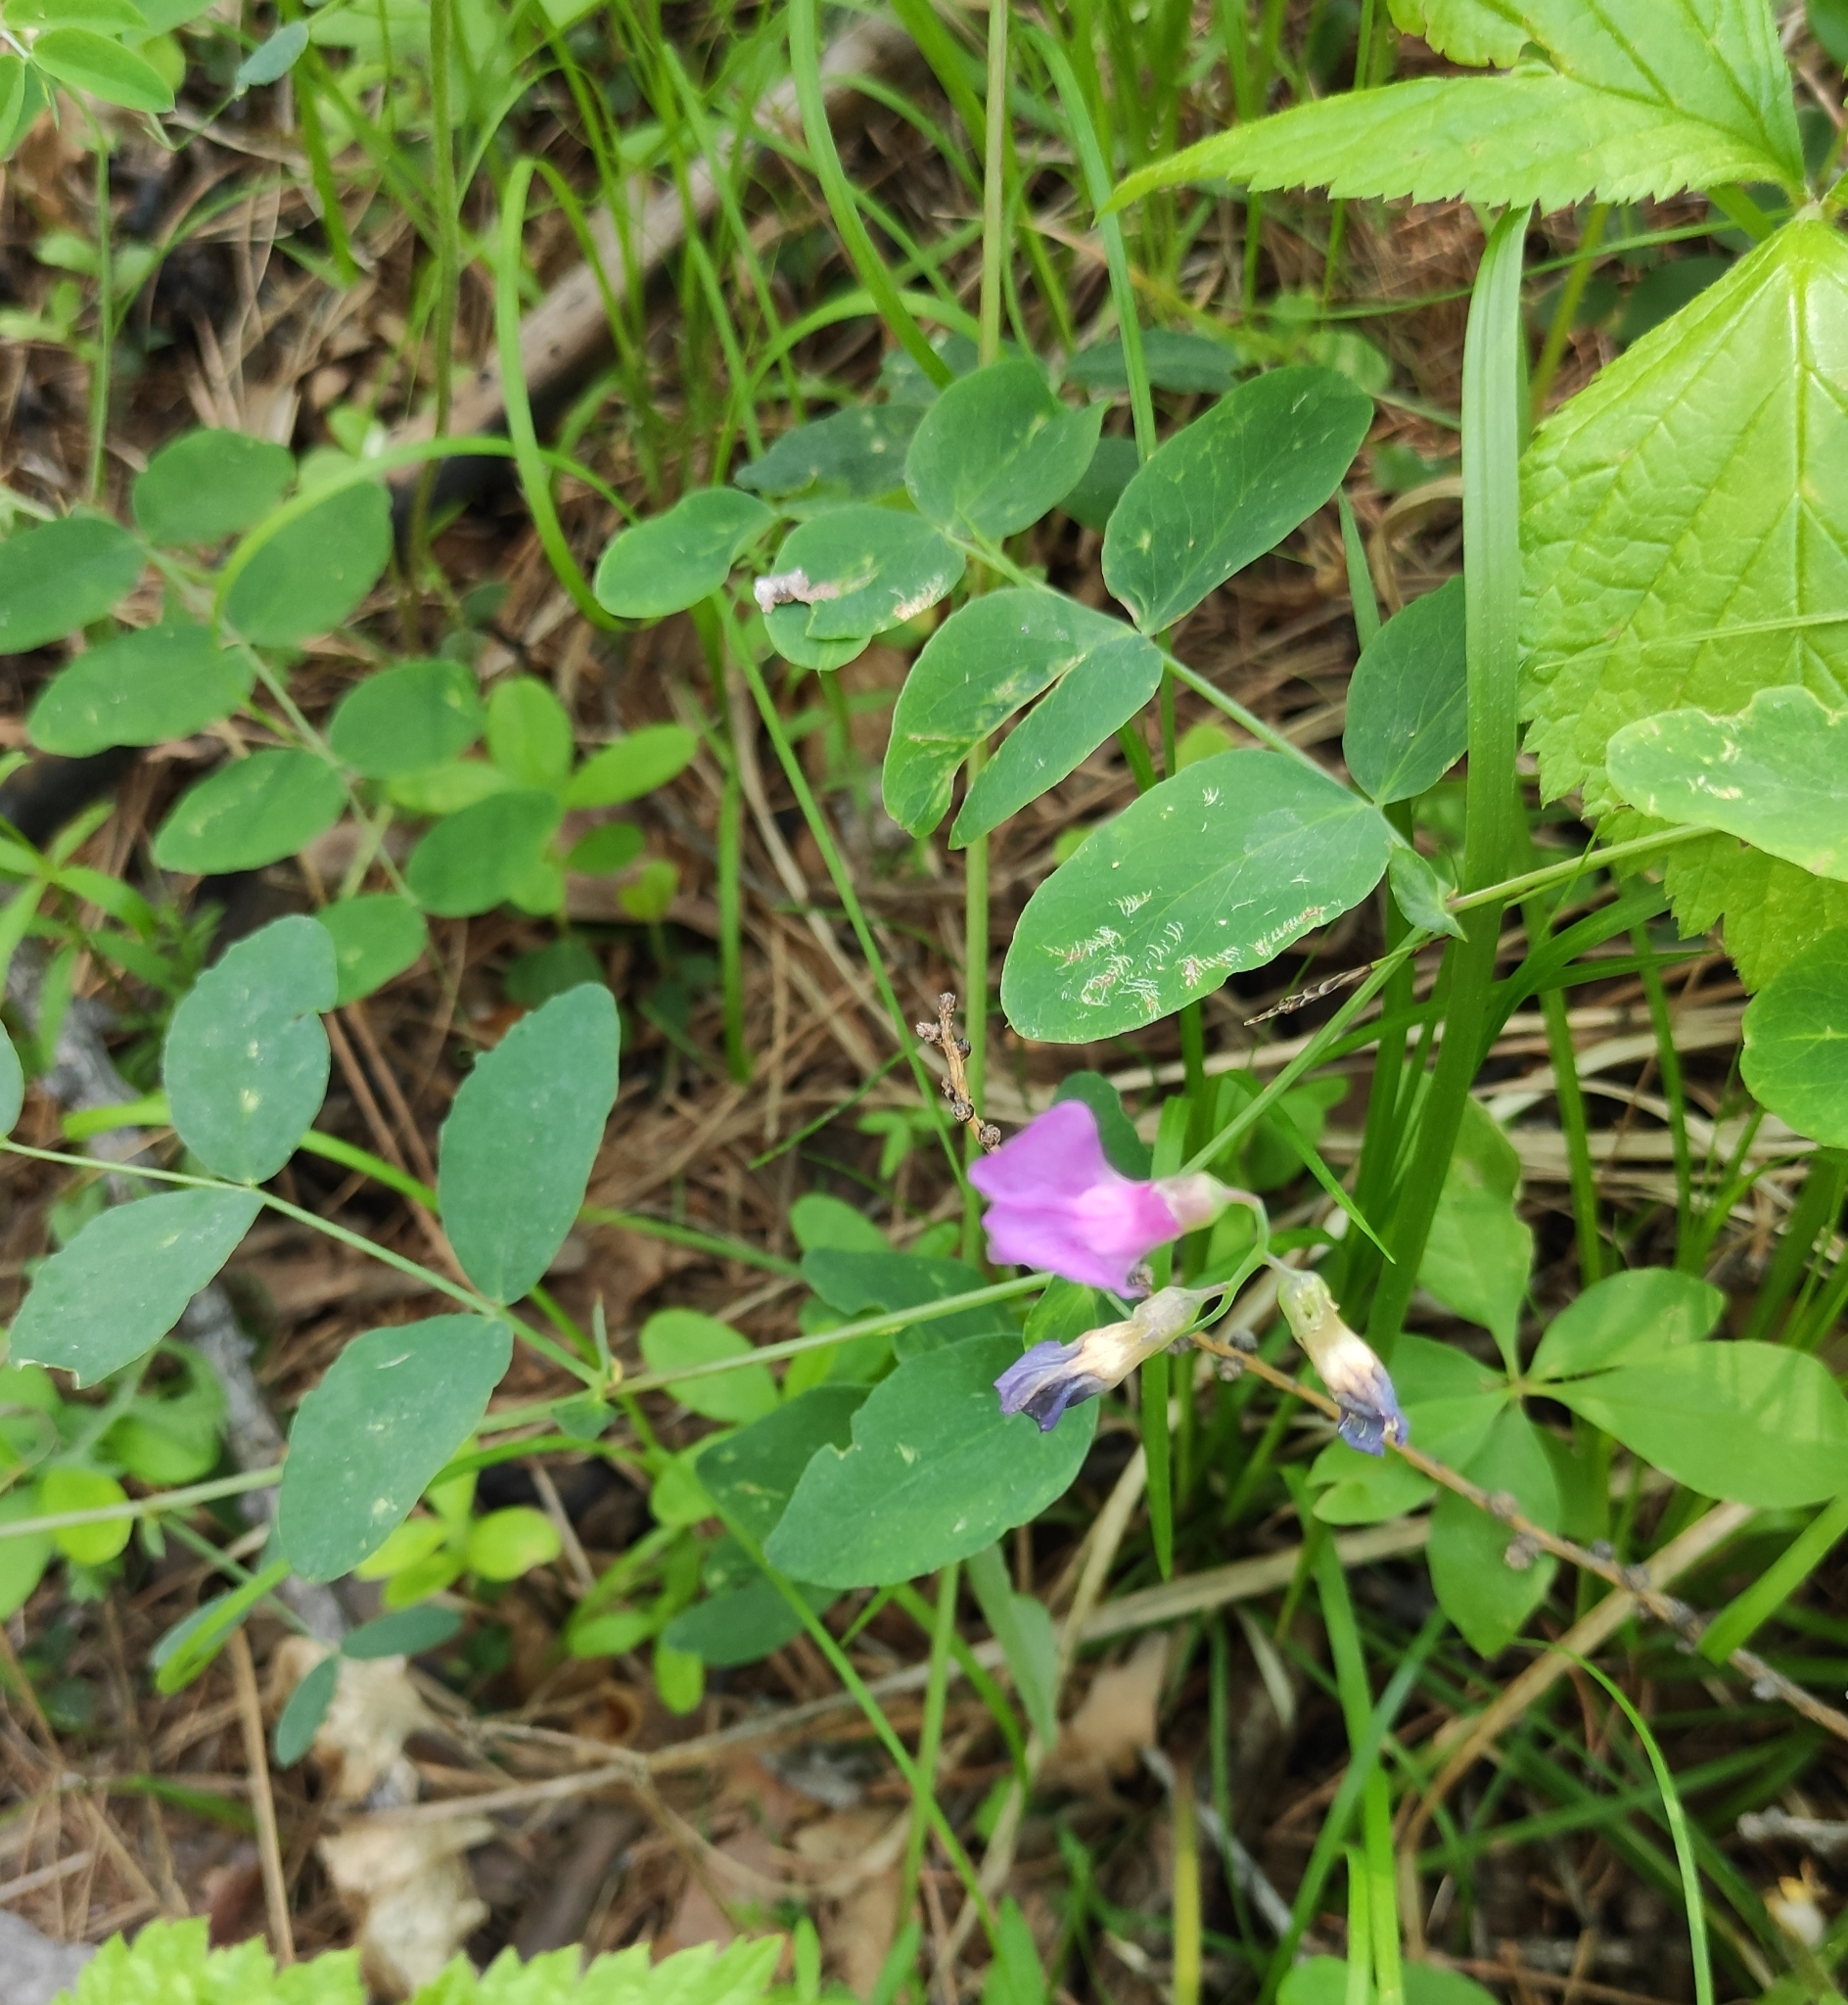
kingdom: Plantae
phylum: Tracheophyta
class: Magnoliopsida
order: Fabales
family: Fabaceae
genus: Lathyrus
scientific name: Lathyrus humilis
